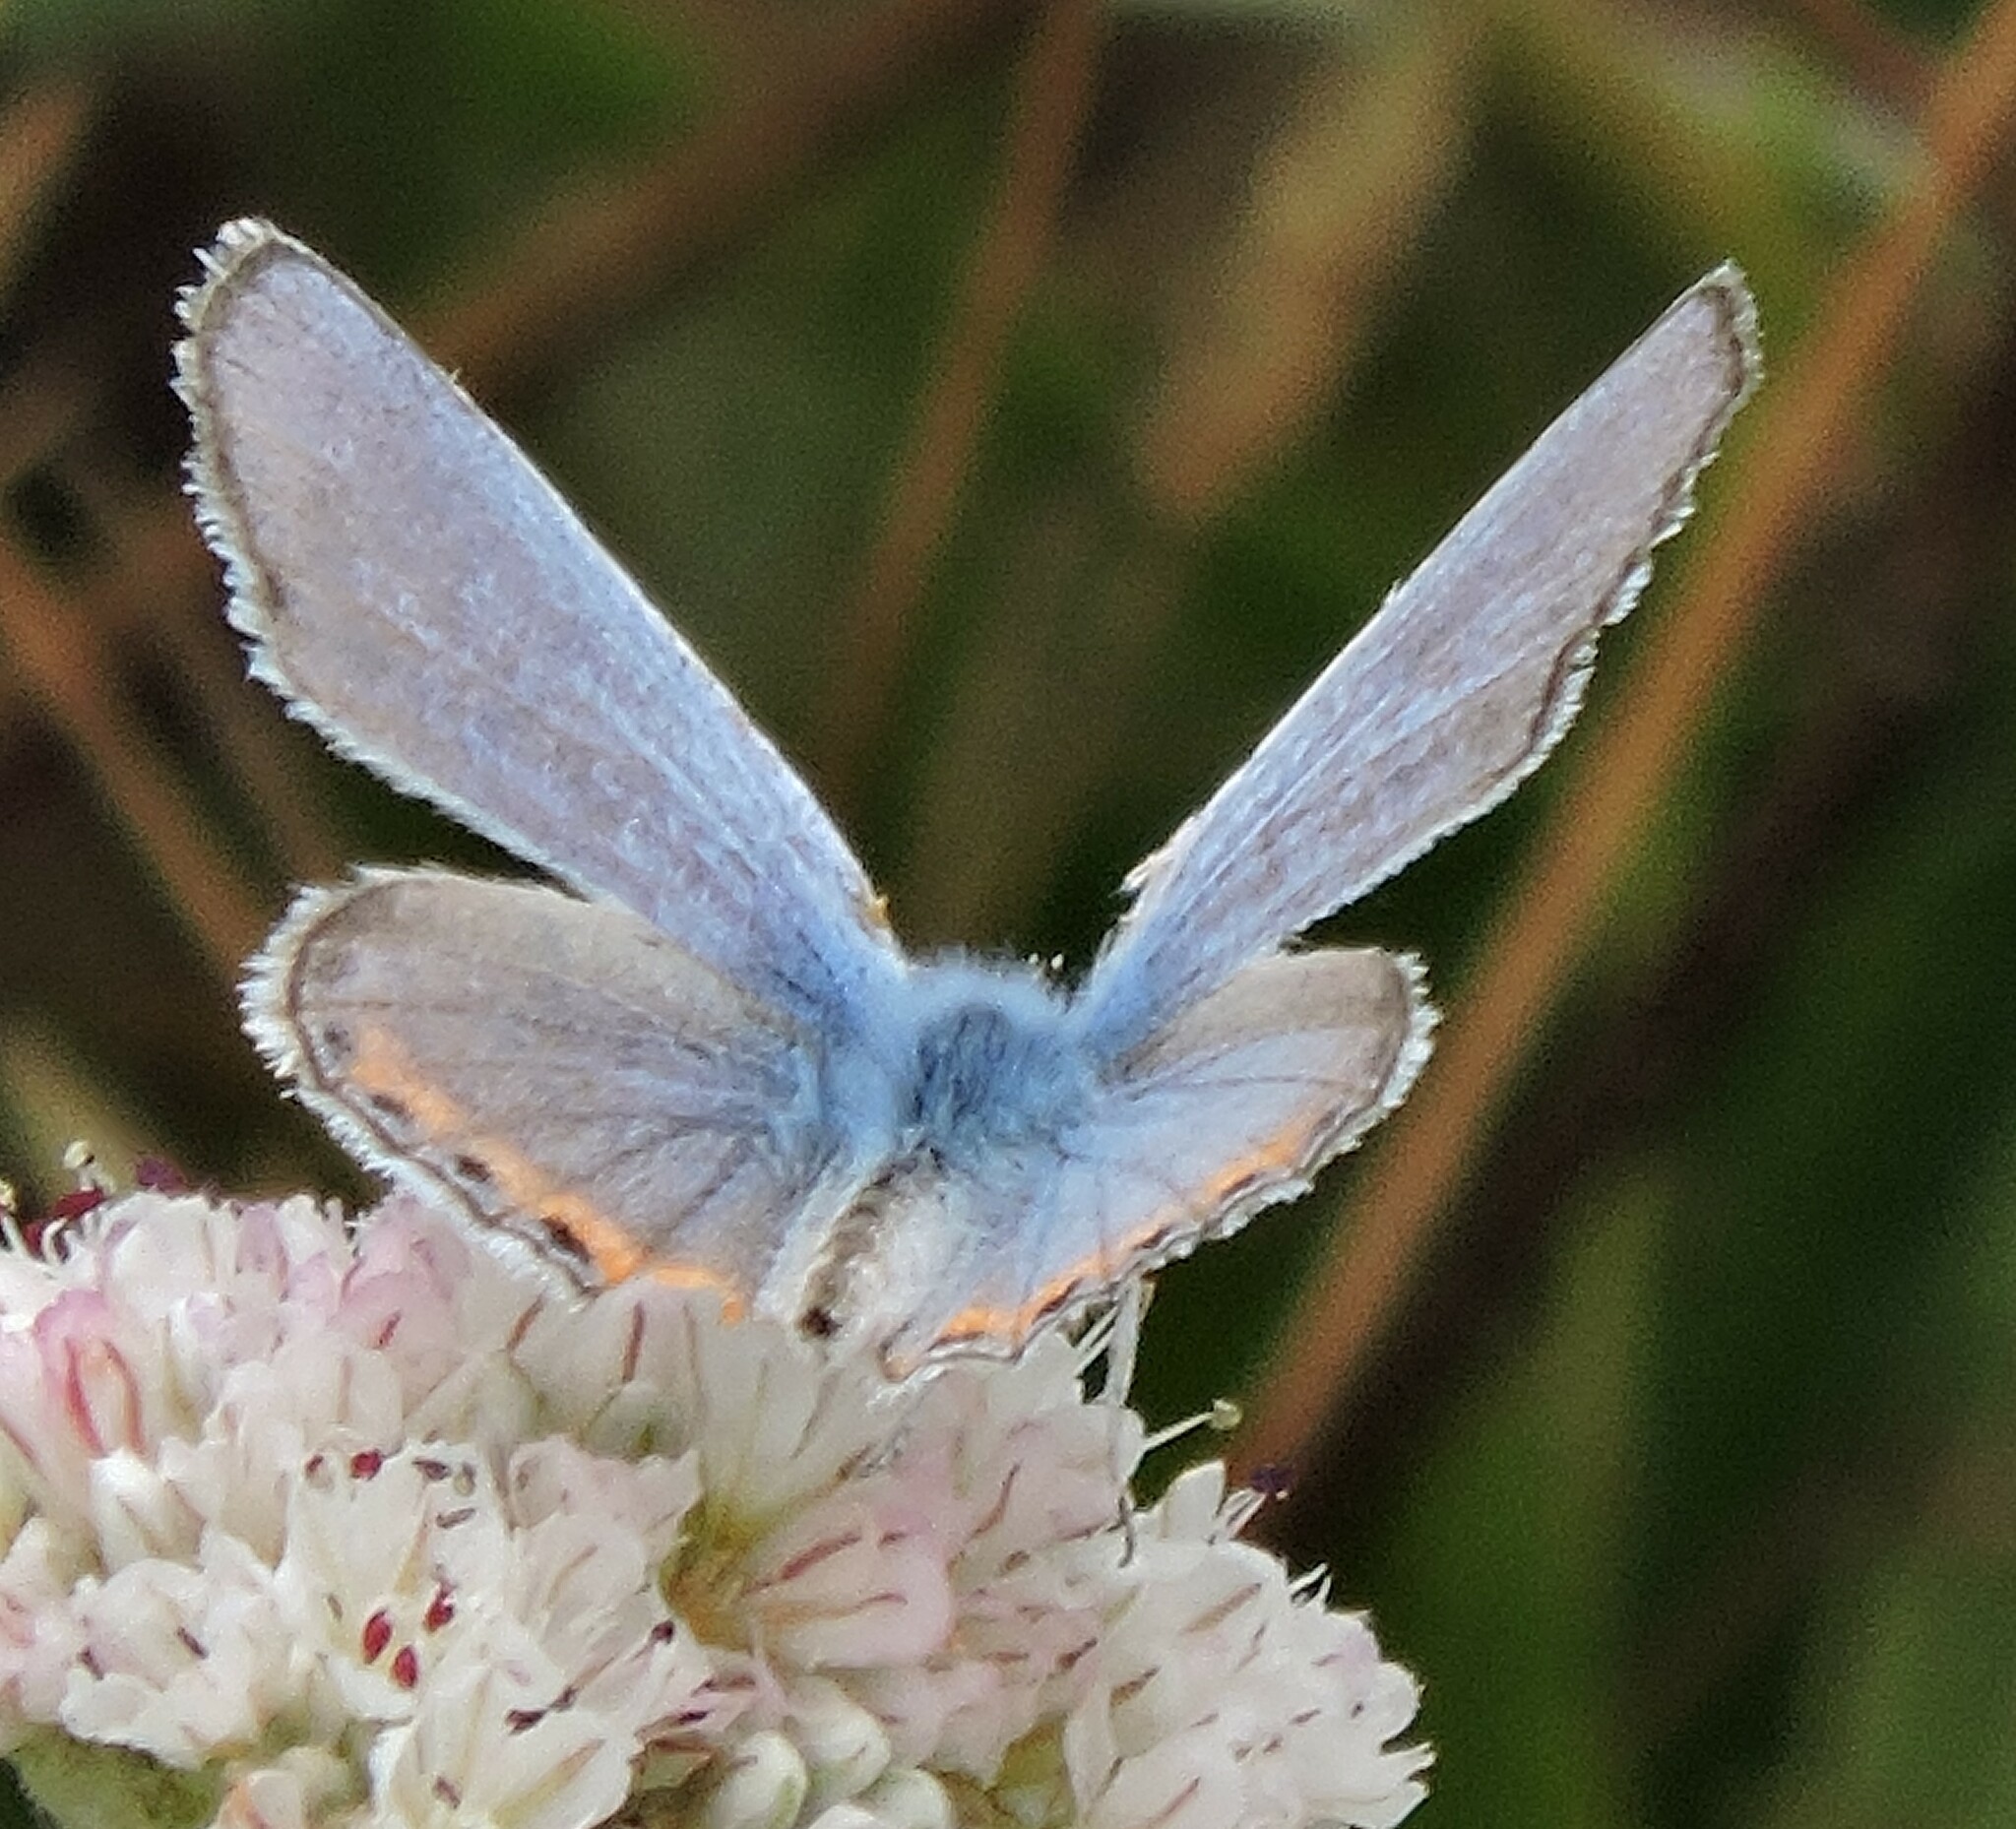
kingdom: Animalia
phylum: Arthropoda
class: Insecta
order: Lepidoptera
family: Lycaenidae
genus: Icaricia
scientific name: Icaricia acmon
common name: Acmon blue
